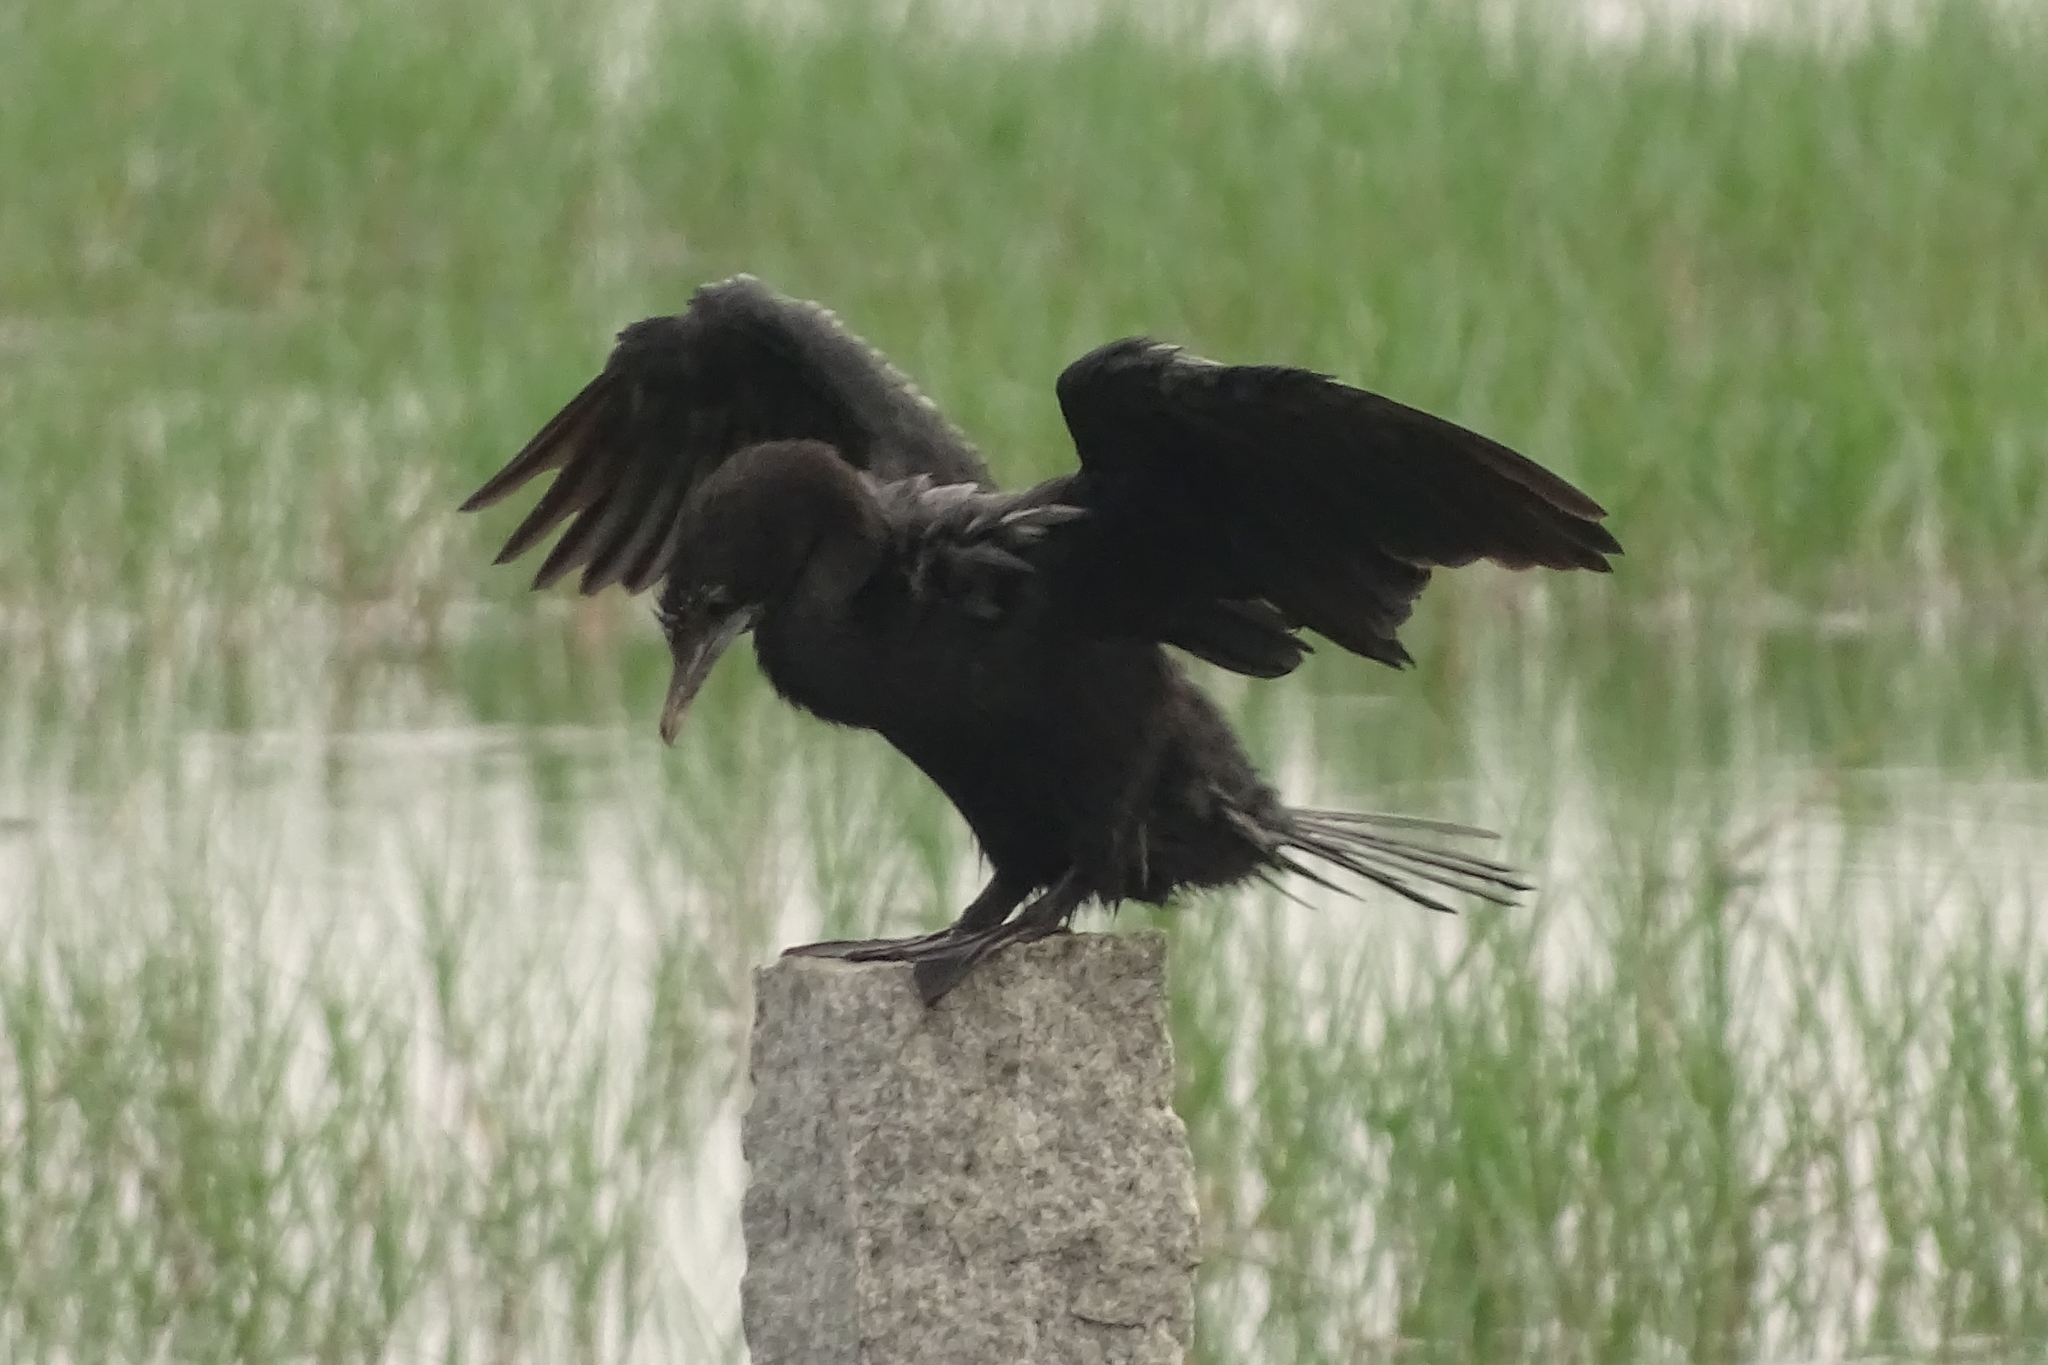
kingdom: Animalia
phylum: Chordata
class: Aves
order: Suliformes
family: Phalacrocoracidae
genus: Microcarbo
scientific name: Microcarbo niger
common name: Little cormorant
